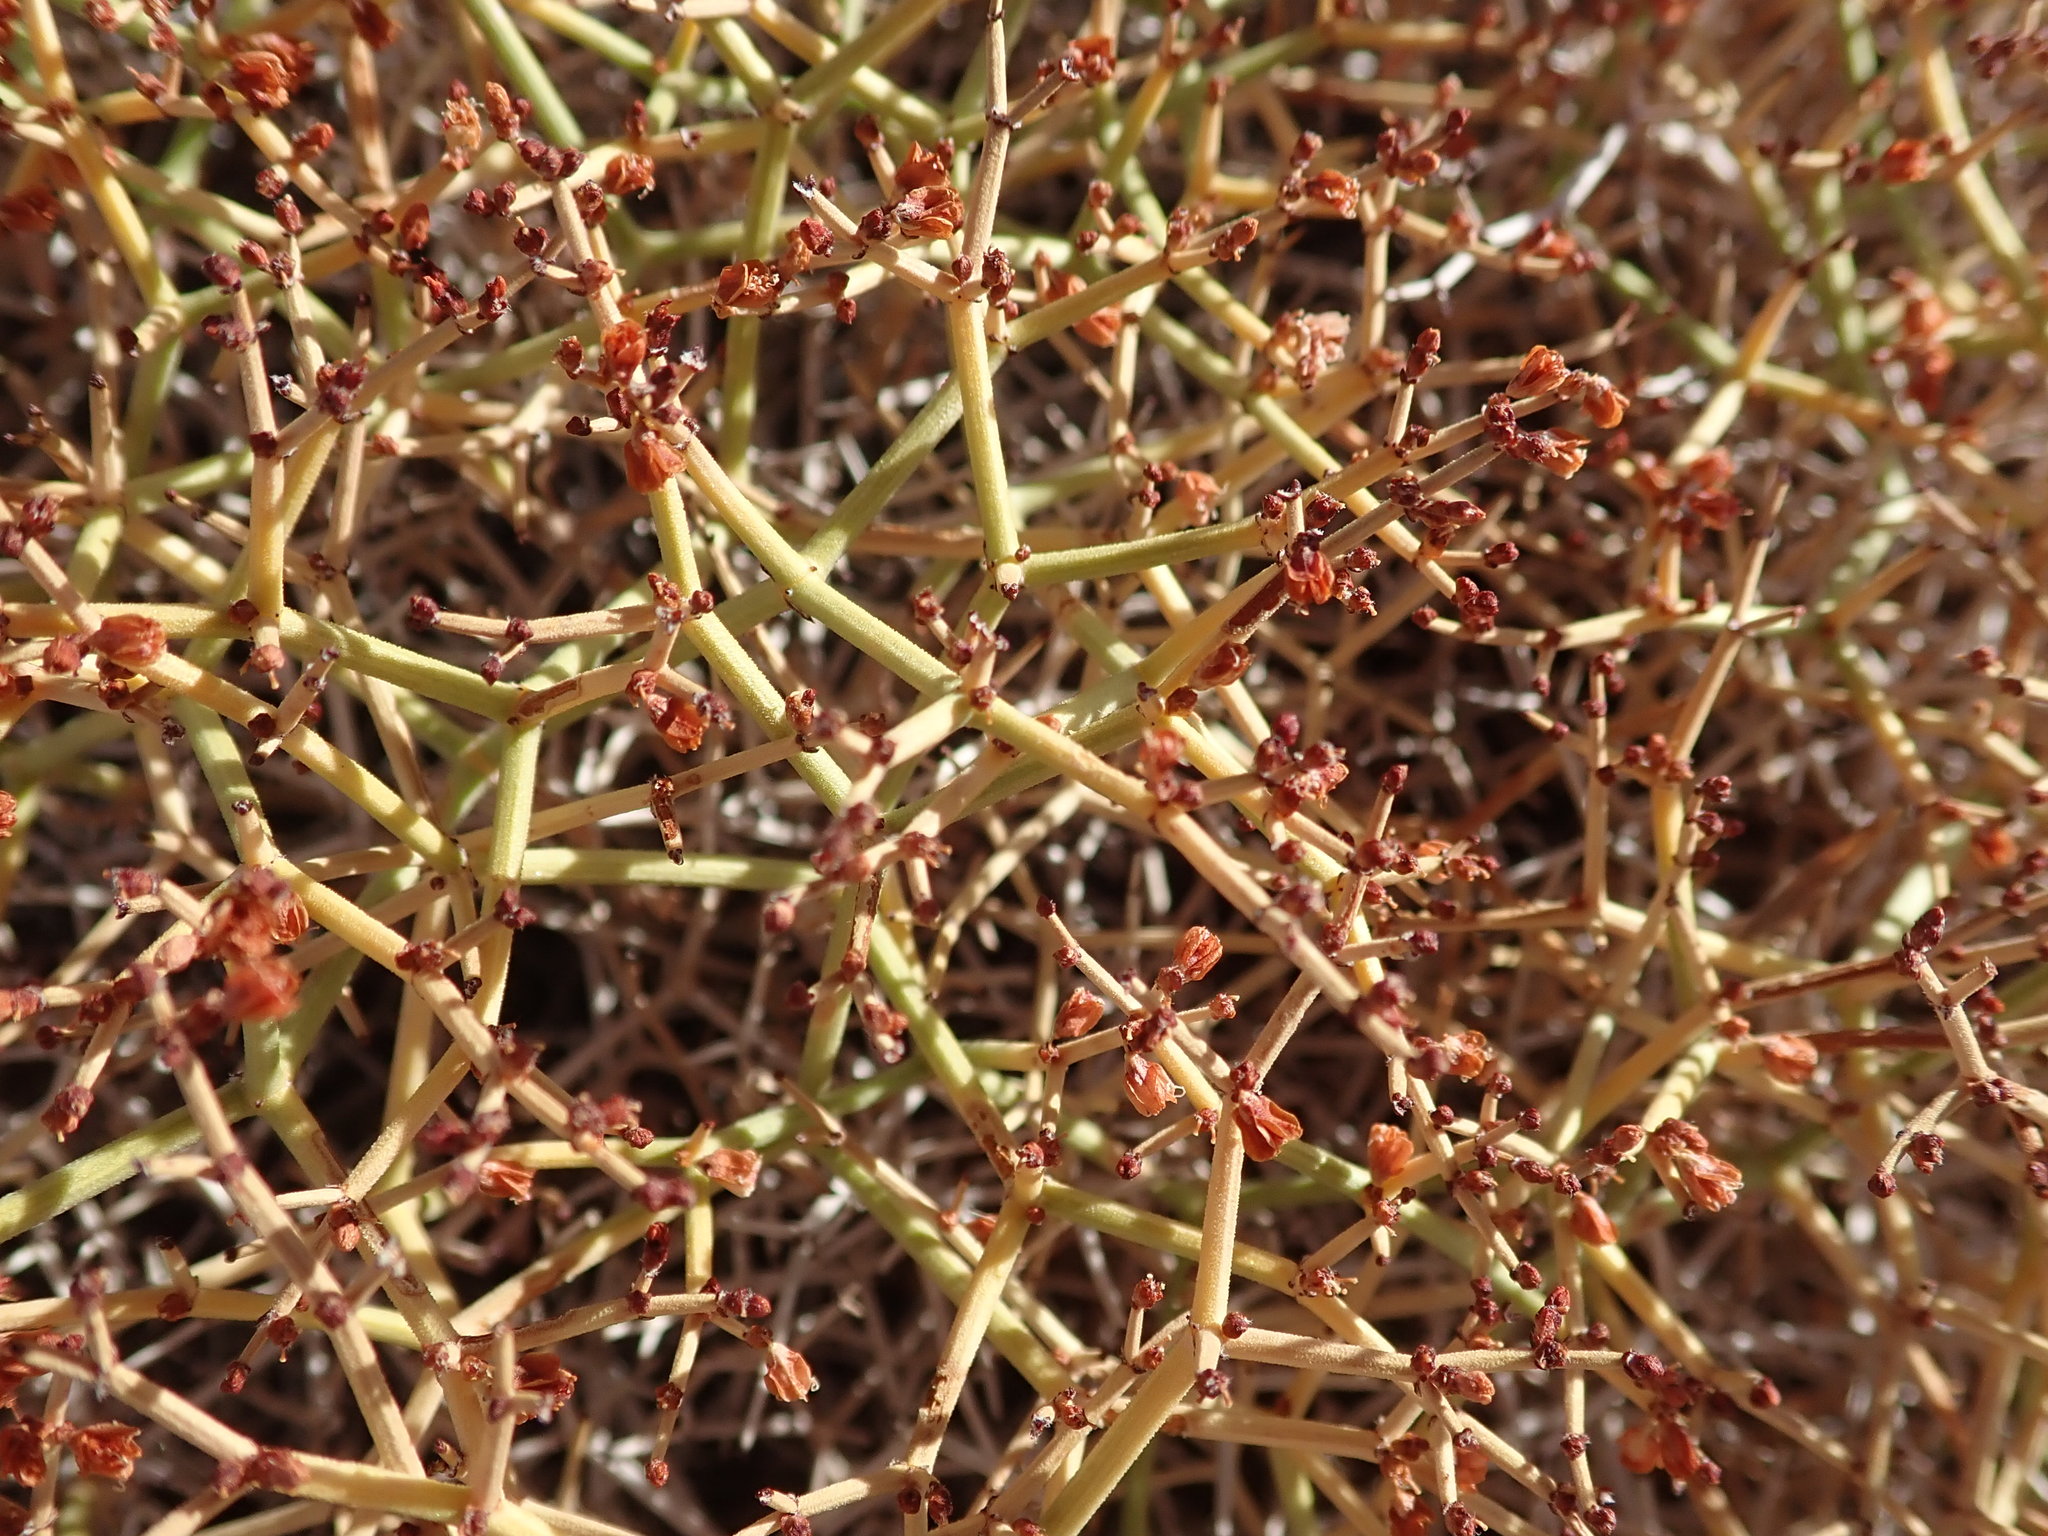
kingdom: Plantae
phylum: Tracheophyta
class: Magnoliopsida
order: Caryophyllales
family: Polygonaceae
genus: Eriogonum
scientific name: Eriogonum heermannii
